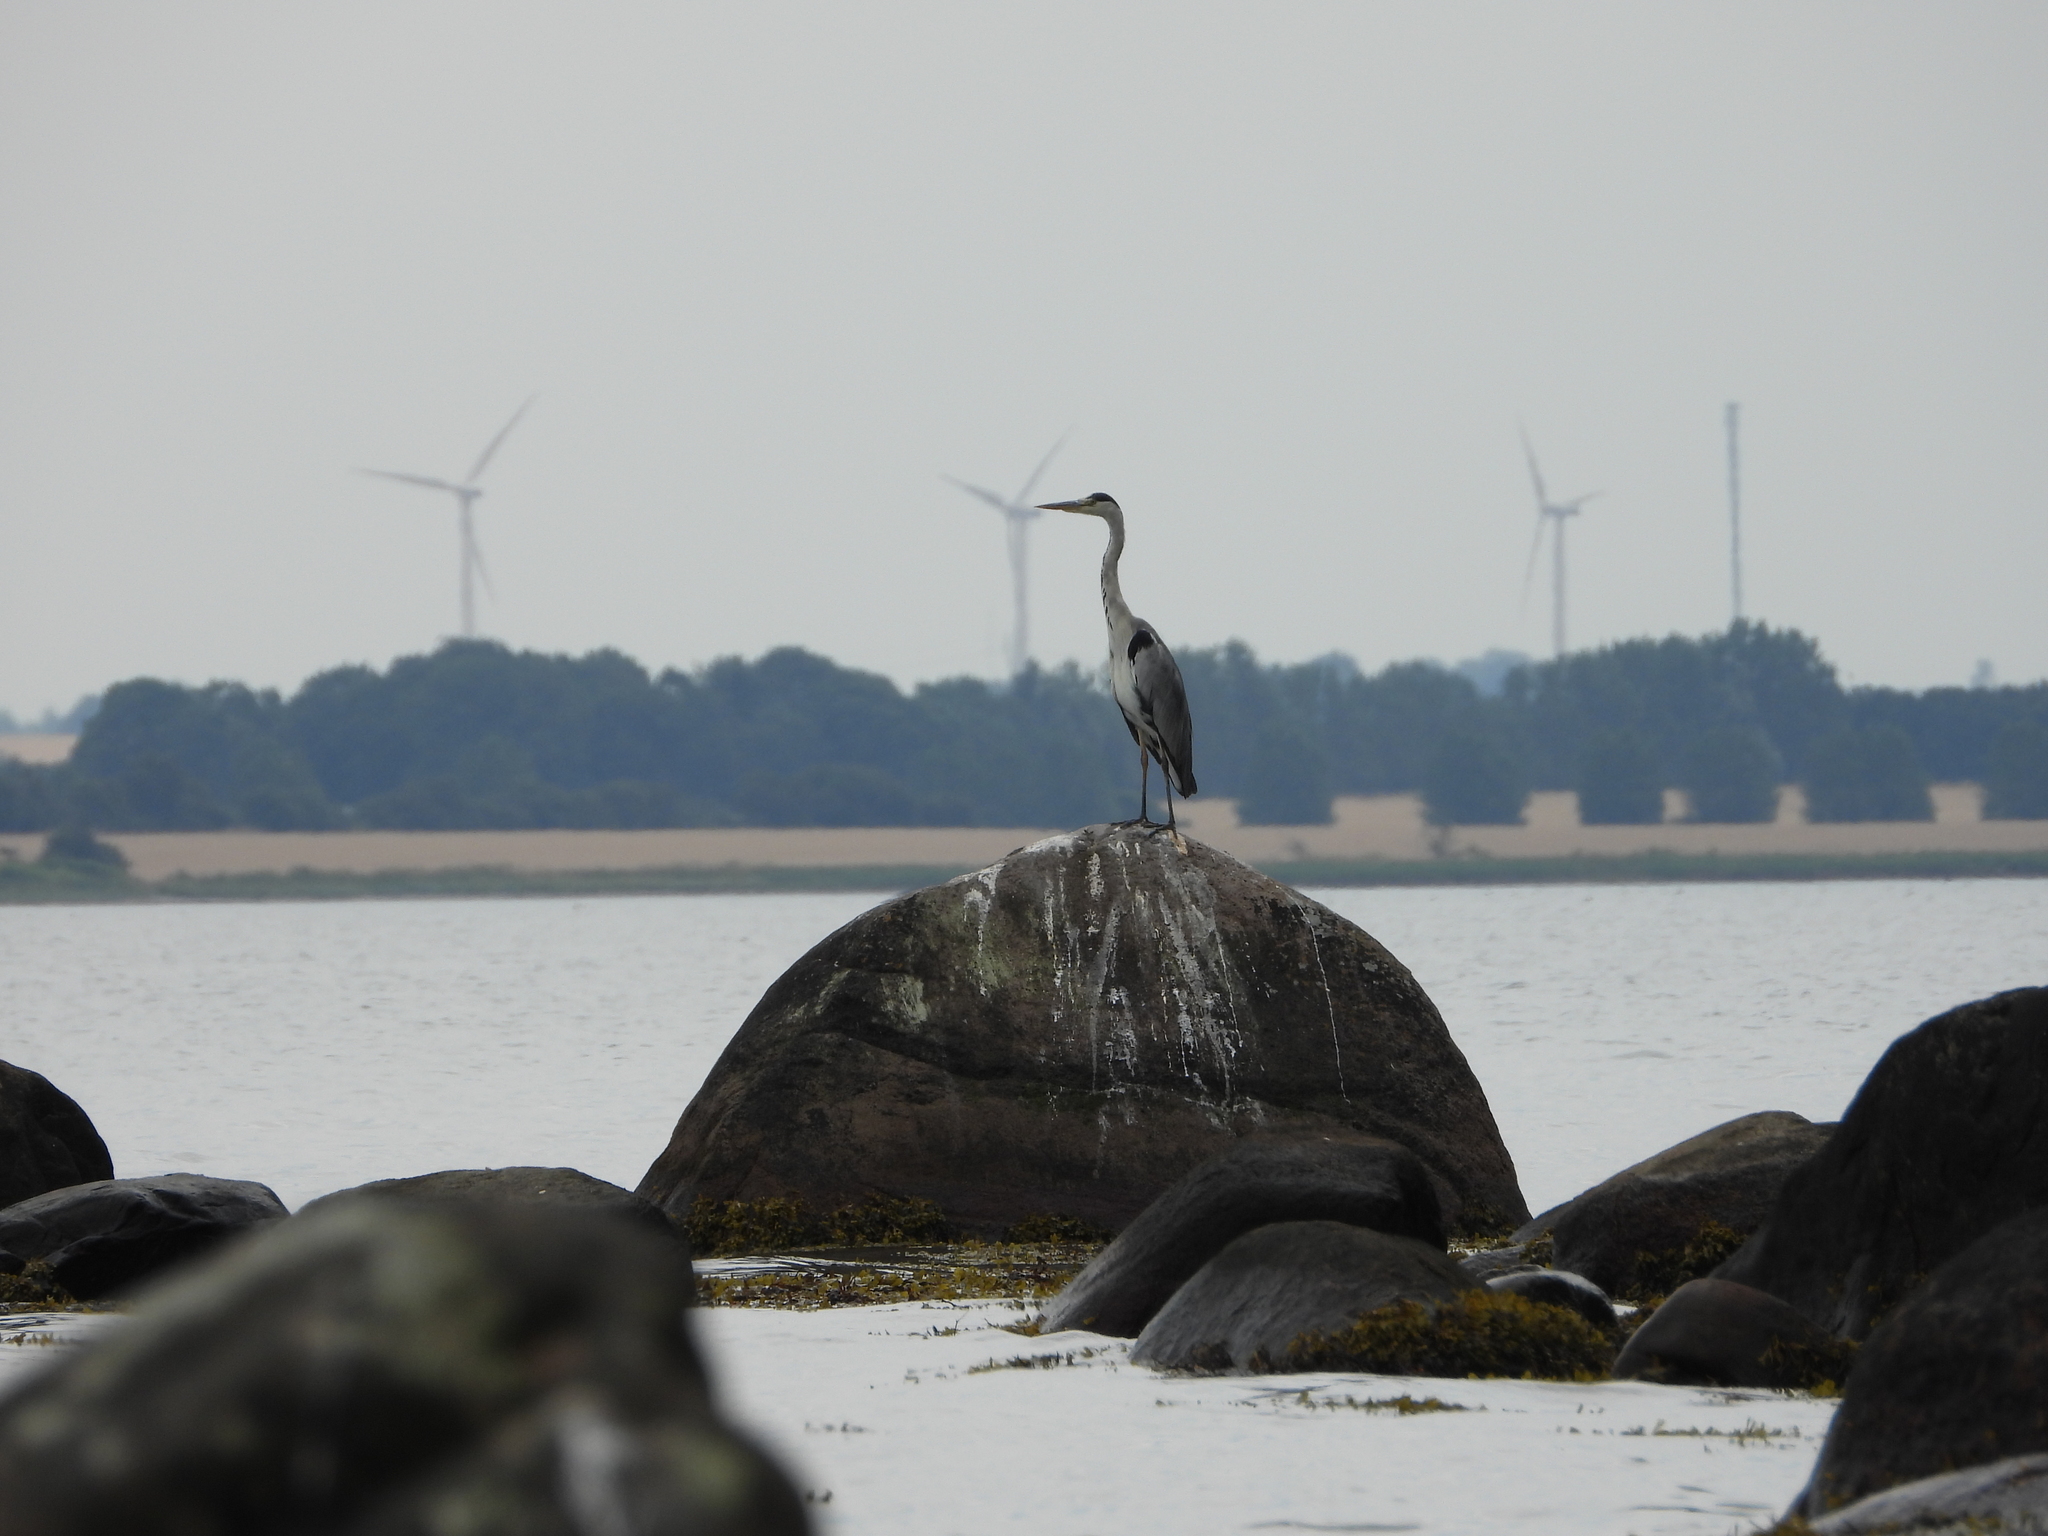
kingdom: Animalia
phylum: Chordata
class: Aves
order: Pelecaniformes
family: Ardeidae
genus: Ardea
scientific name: Ardea cinerea
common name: Grey heron
